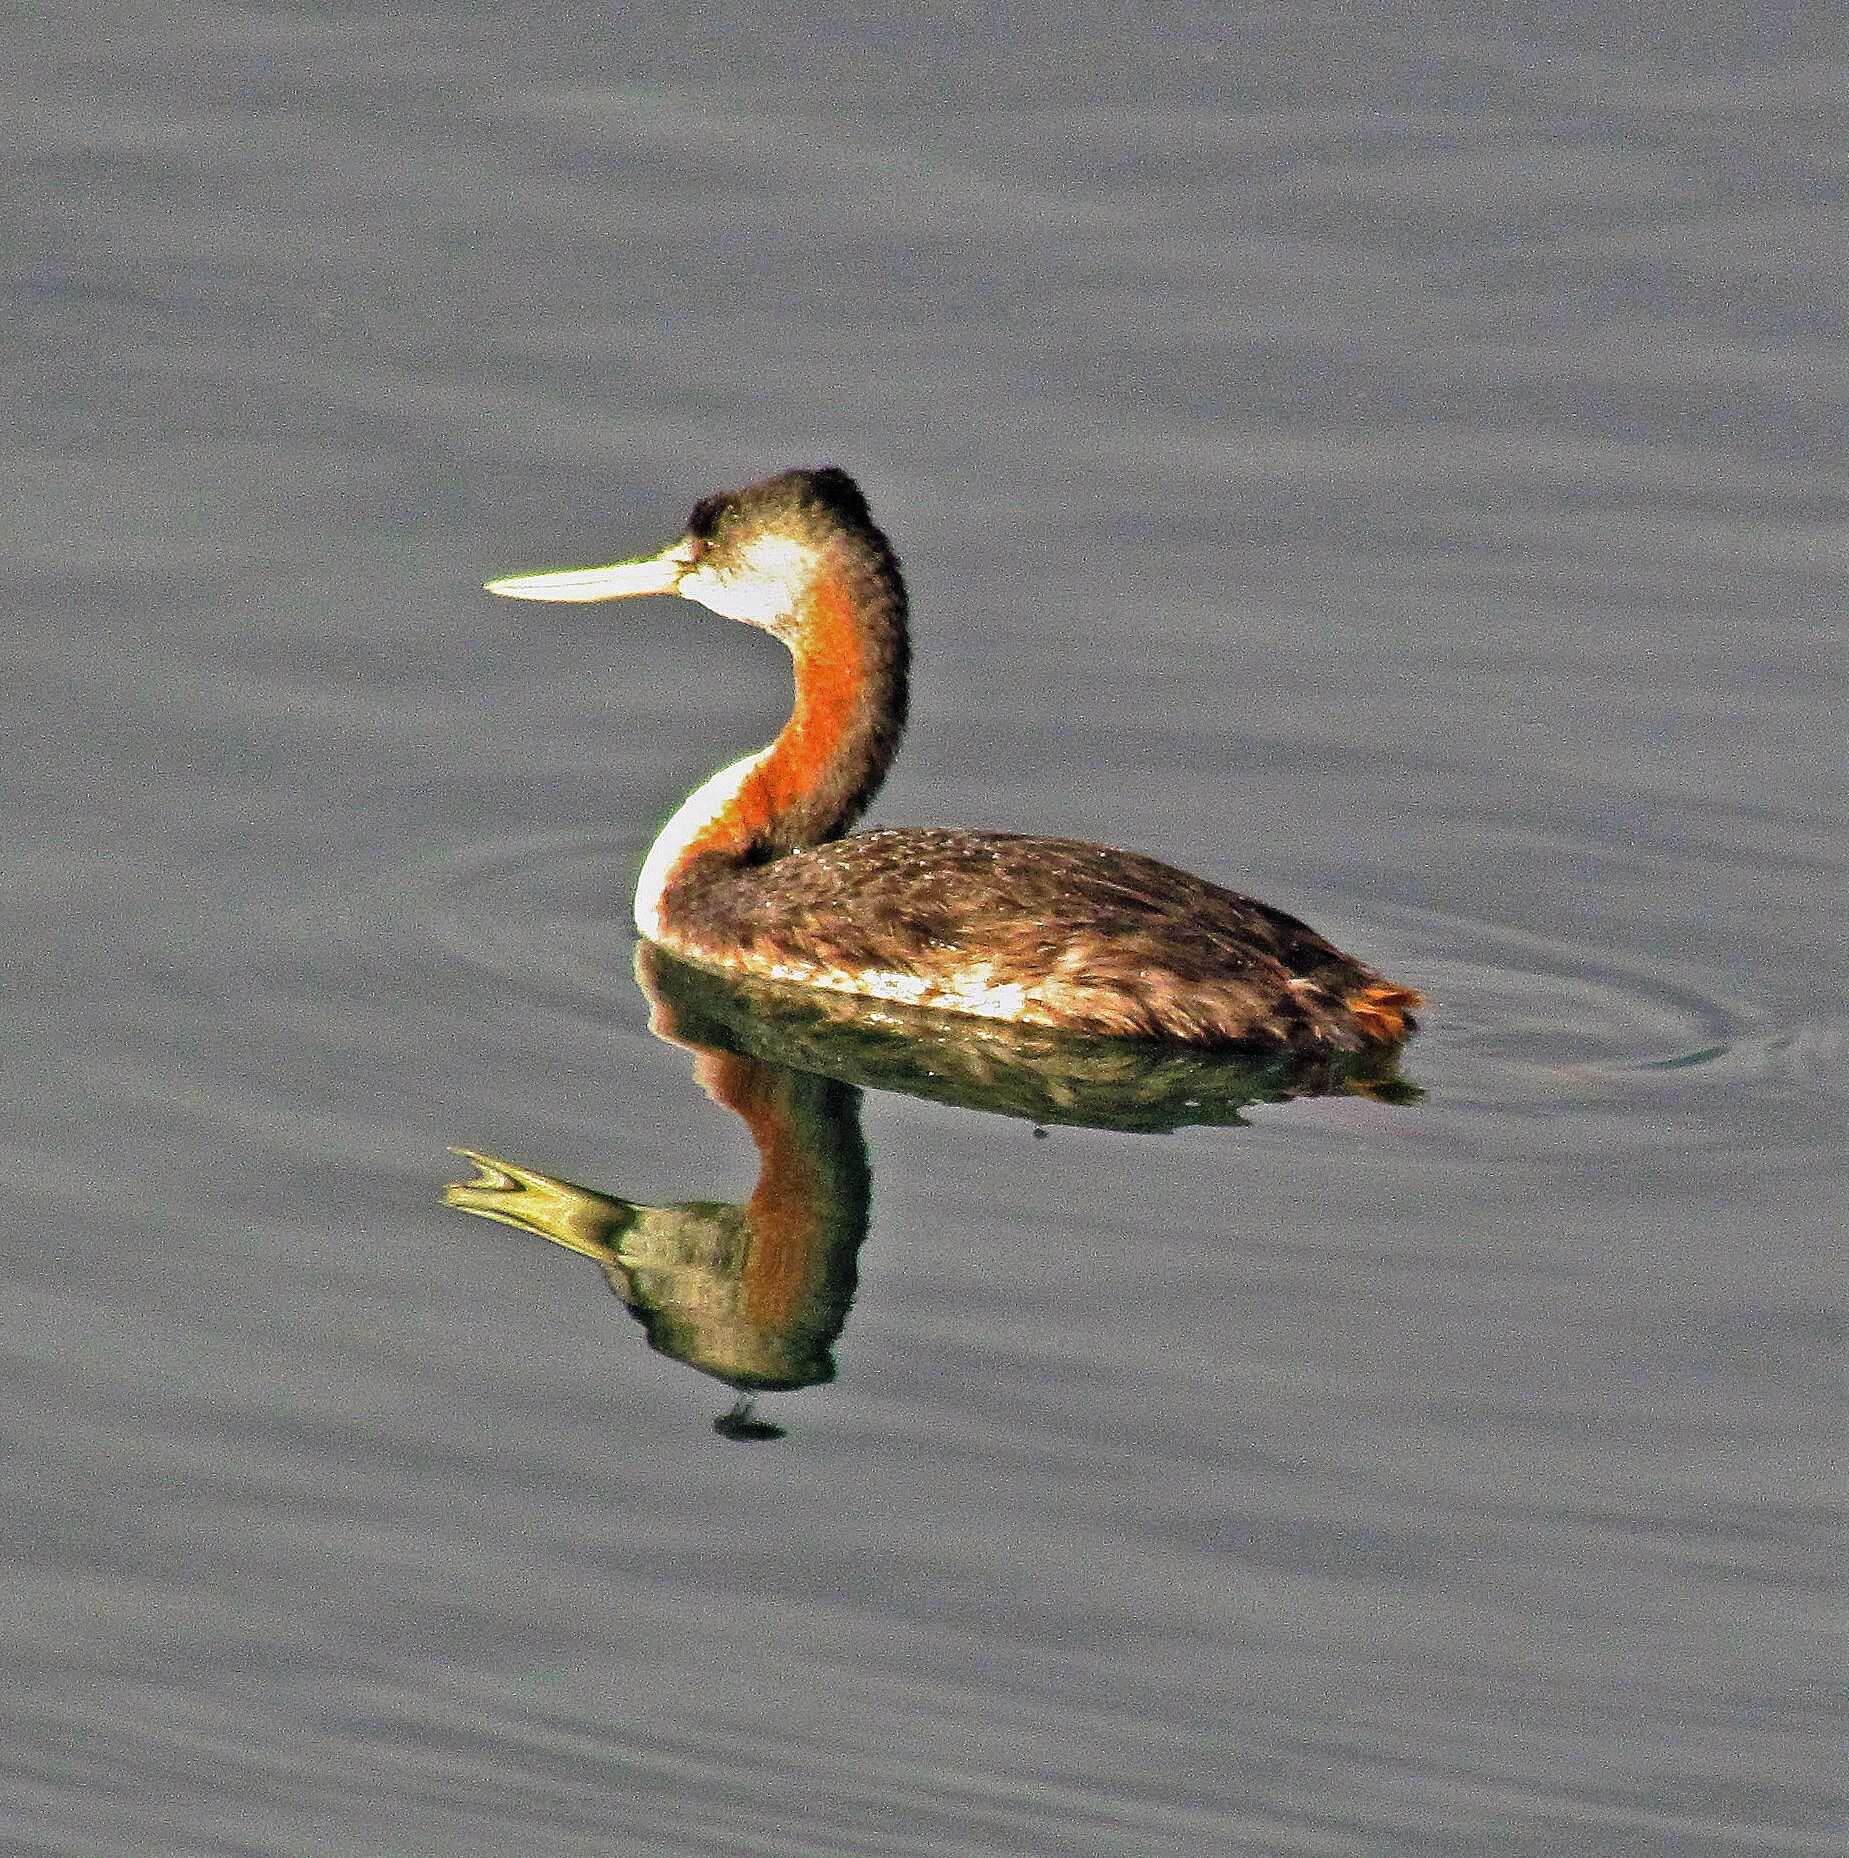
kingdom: Animalia
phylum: Chordata
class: Aves
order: Podicipediformes
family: Podicipedidae
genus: Podiceps
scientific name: Podiceps major
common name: Great grebe
